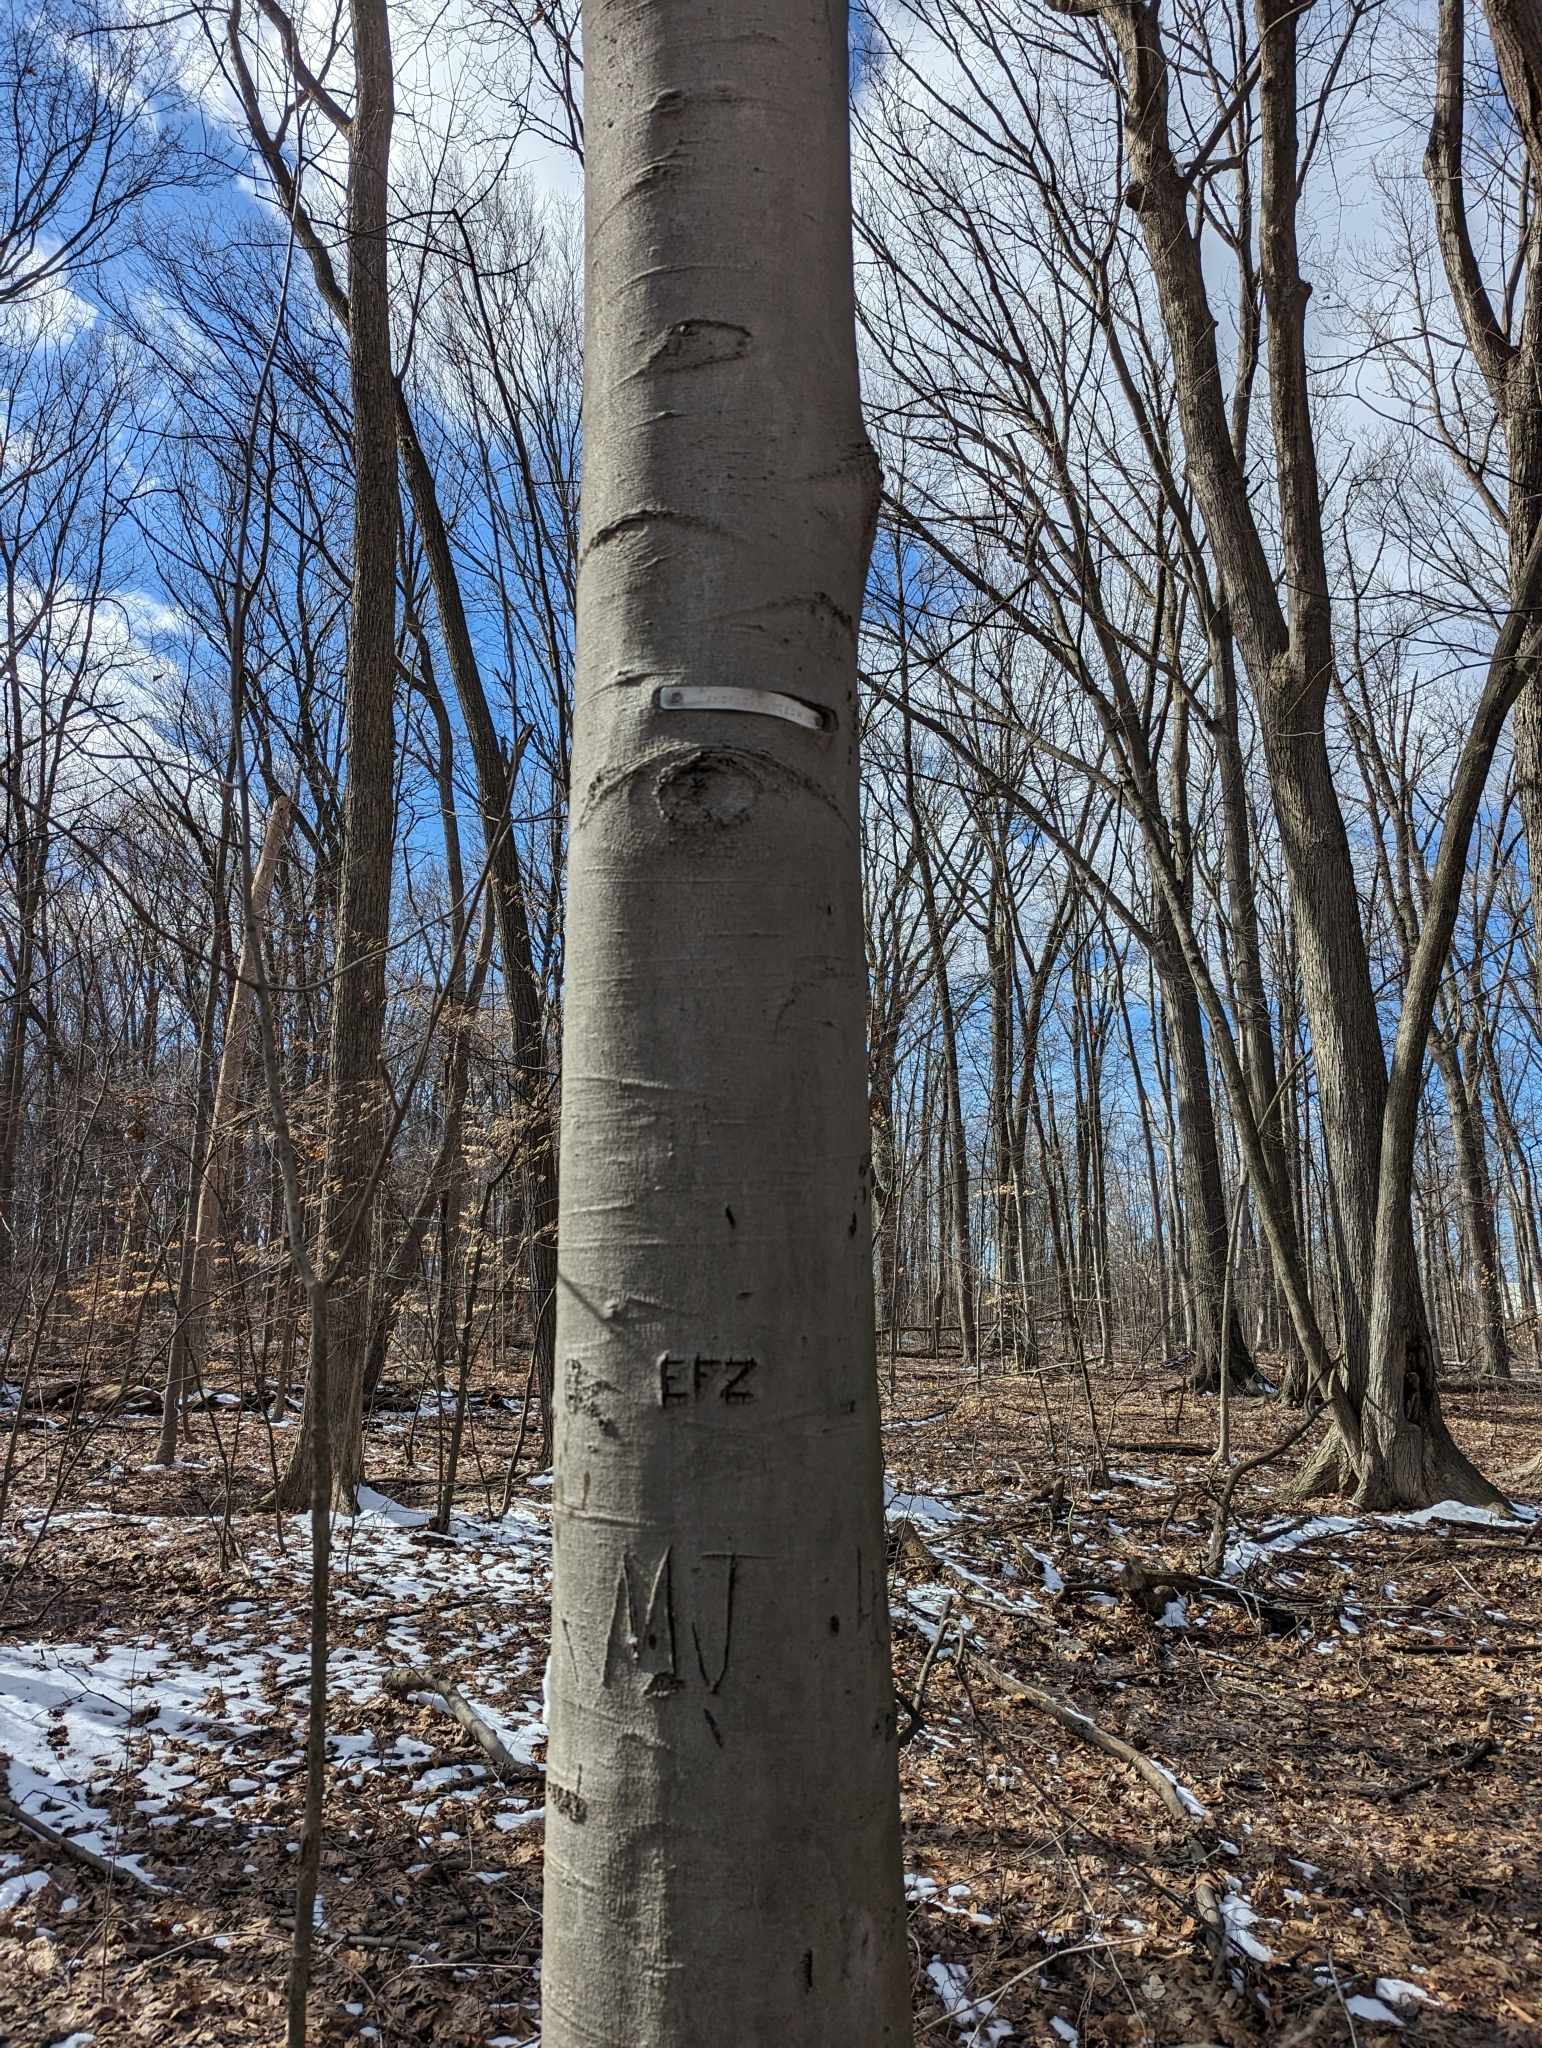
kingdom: Plantae
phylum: Tracheophyta
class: Magnoliopsida
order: Fagales
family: Fagaceae
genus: Fagus
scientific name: Fagus grandifolia
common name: American beech
